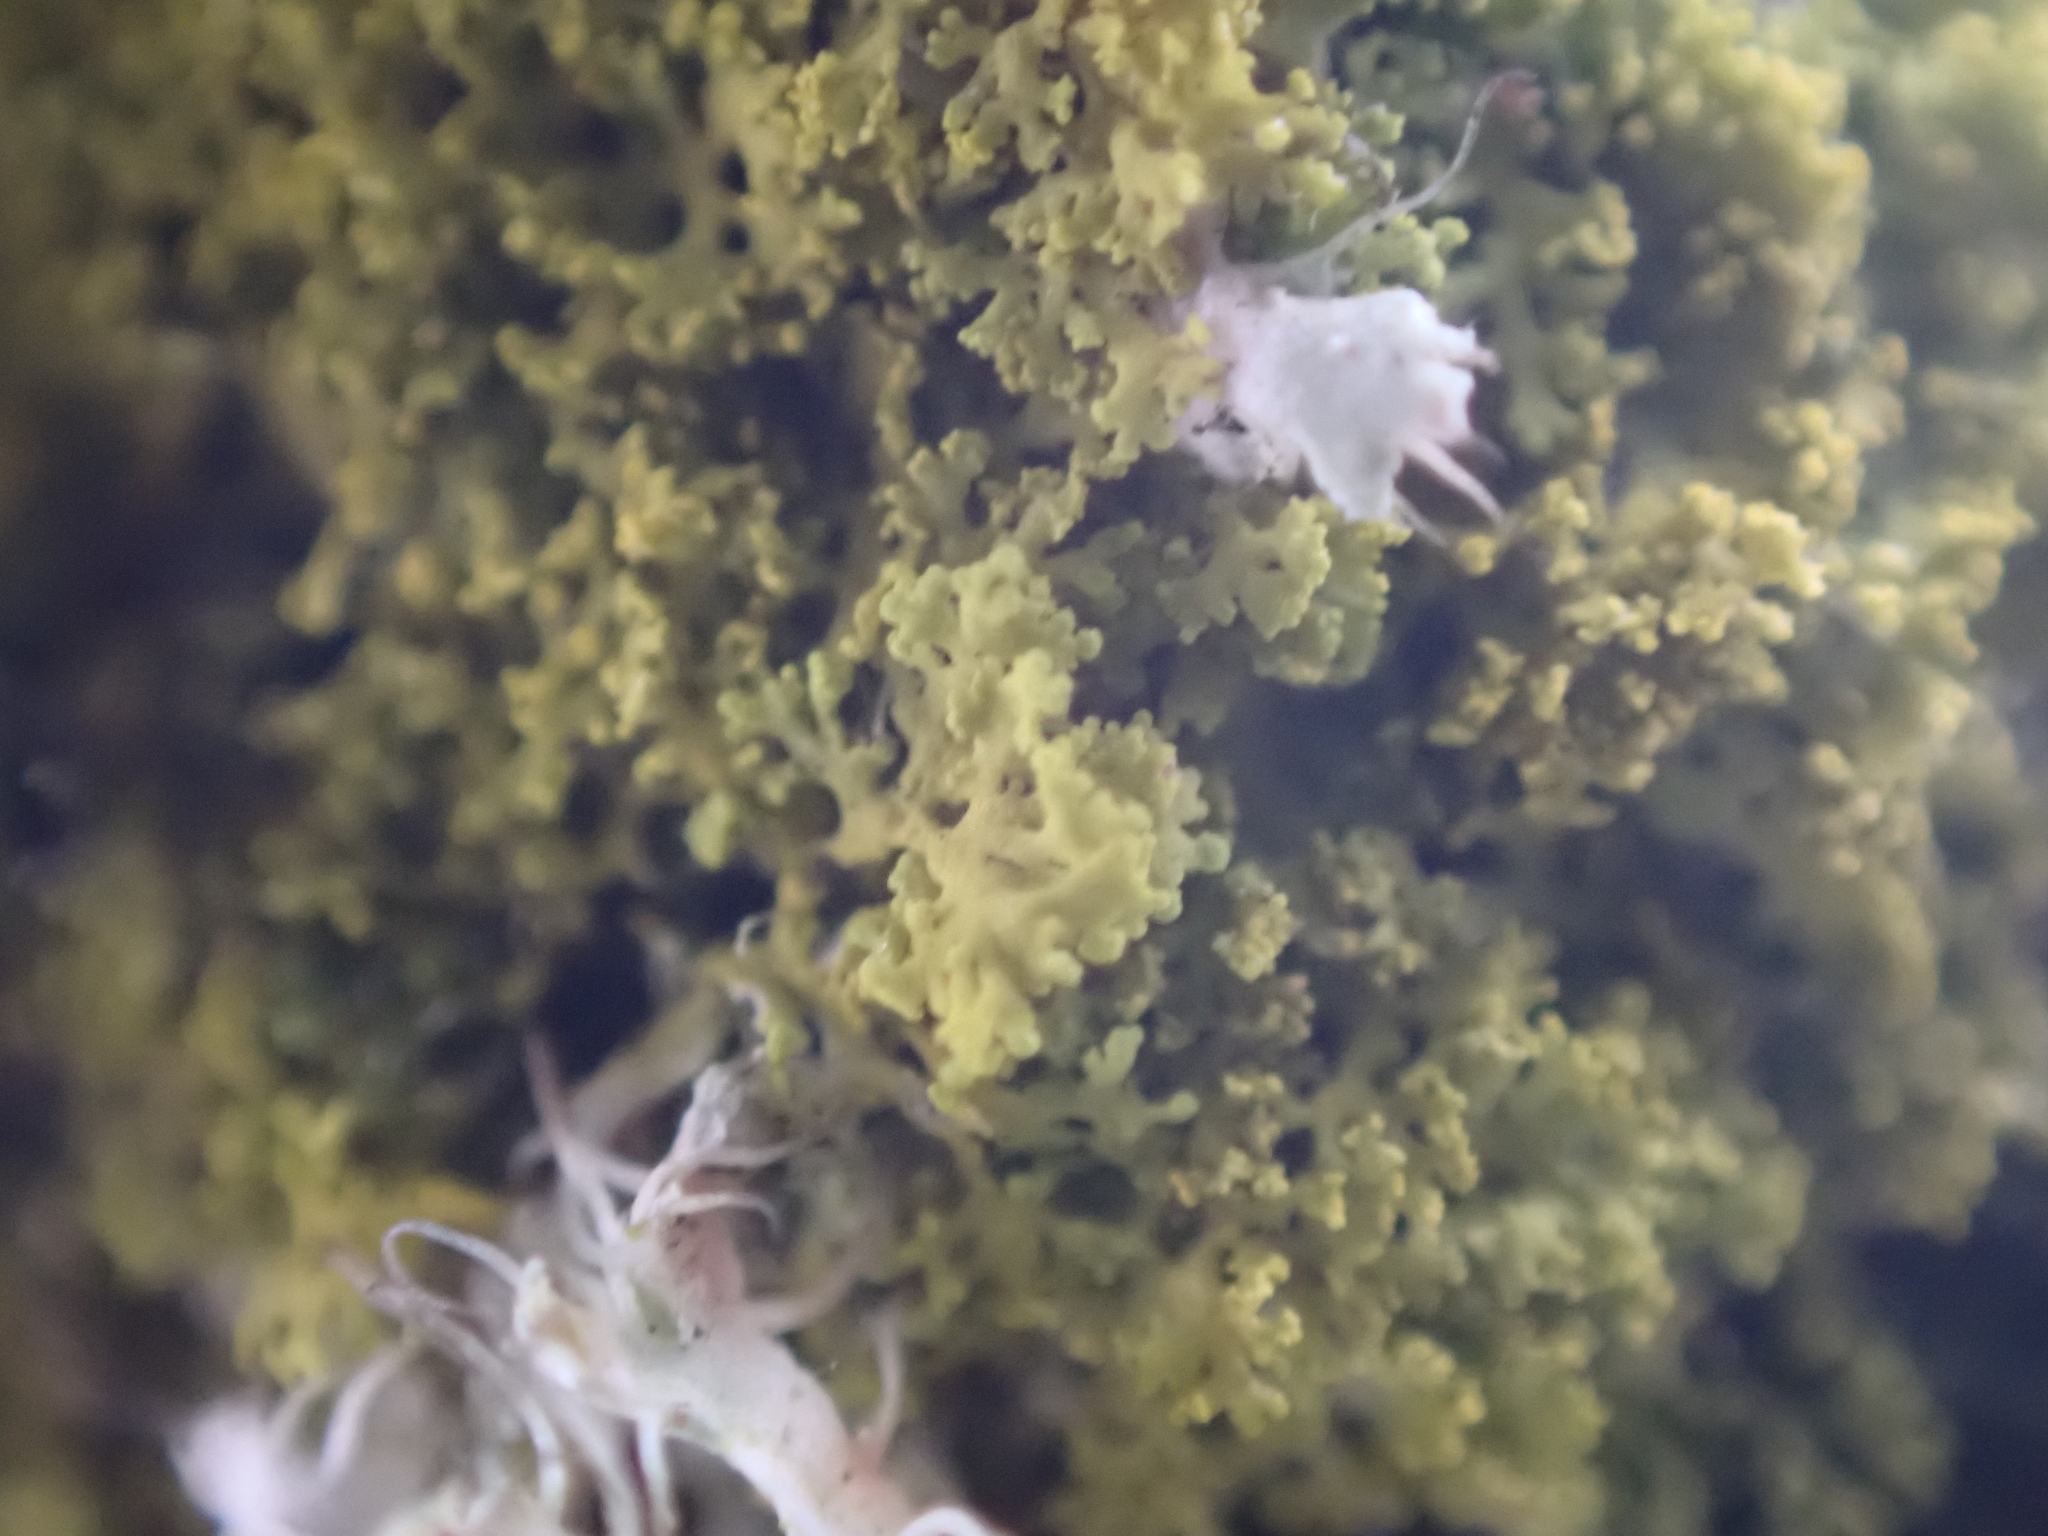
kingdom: Fungi
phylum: Ascomycota
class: Candelariomycetes
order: Candelariales
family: Candelariaceae
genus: Candelaria
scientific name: Candelaria concolor
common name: Candleflame lichen
